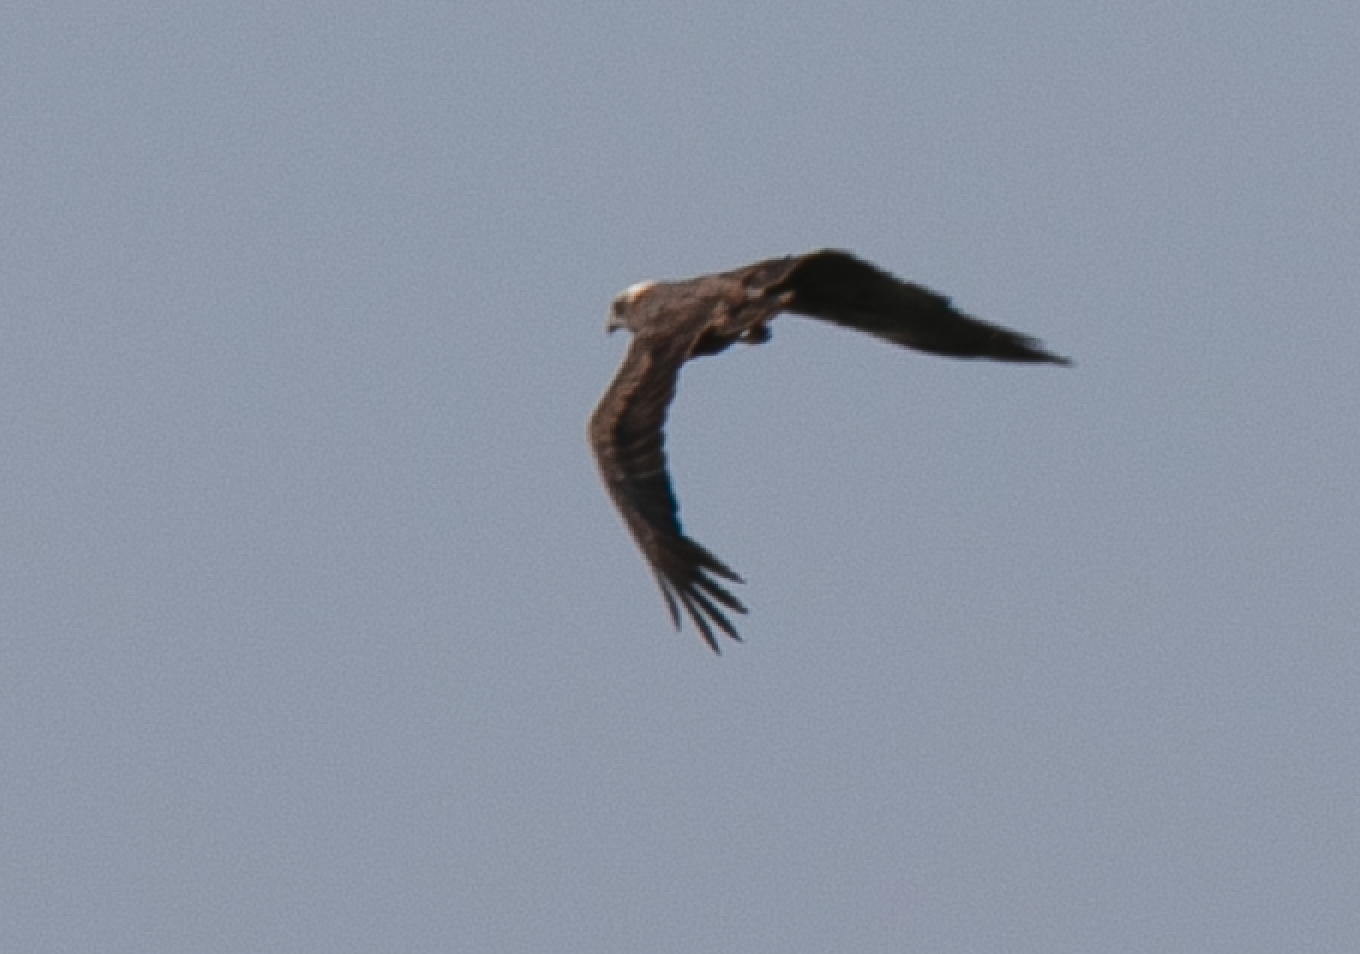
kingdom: Animalia
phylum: Chordata
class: Aves
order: Accipitriformes
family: Accipitridae
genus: Circus
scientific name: Circus aeruginosus
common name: Western marsh harrier
